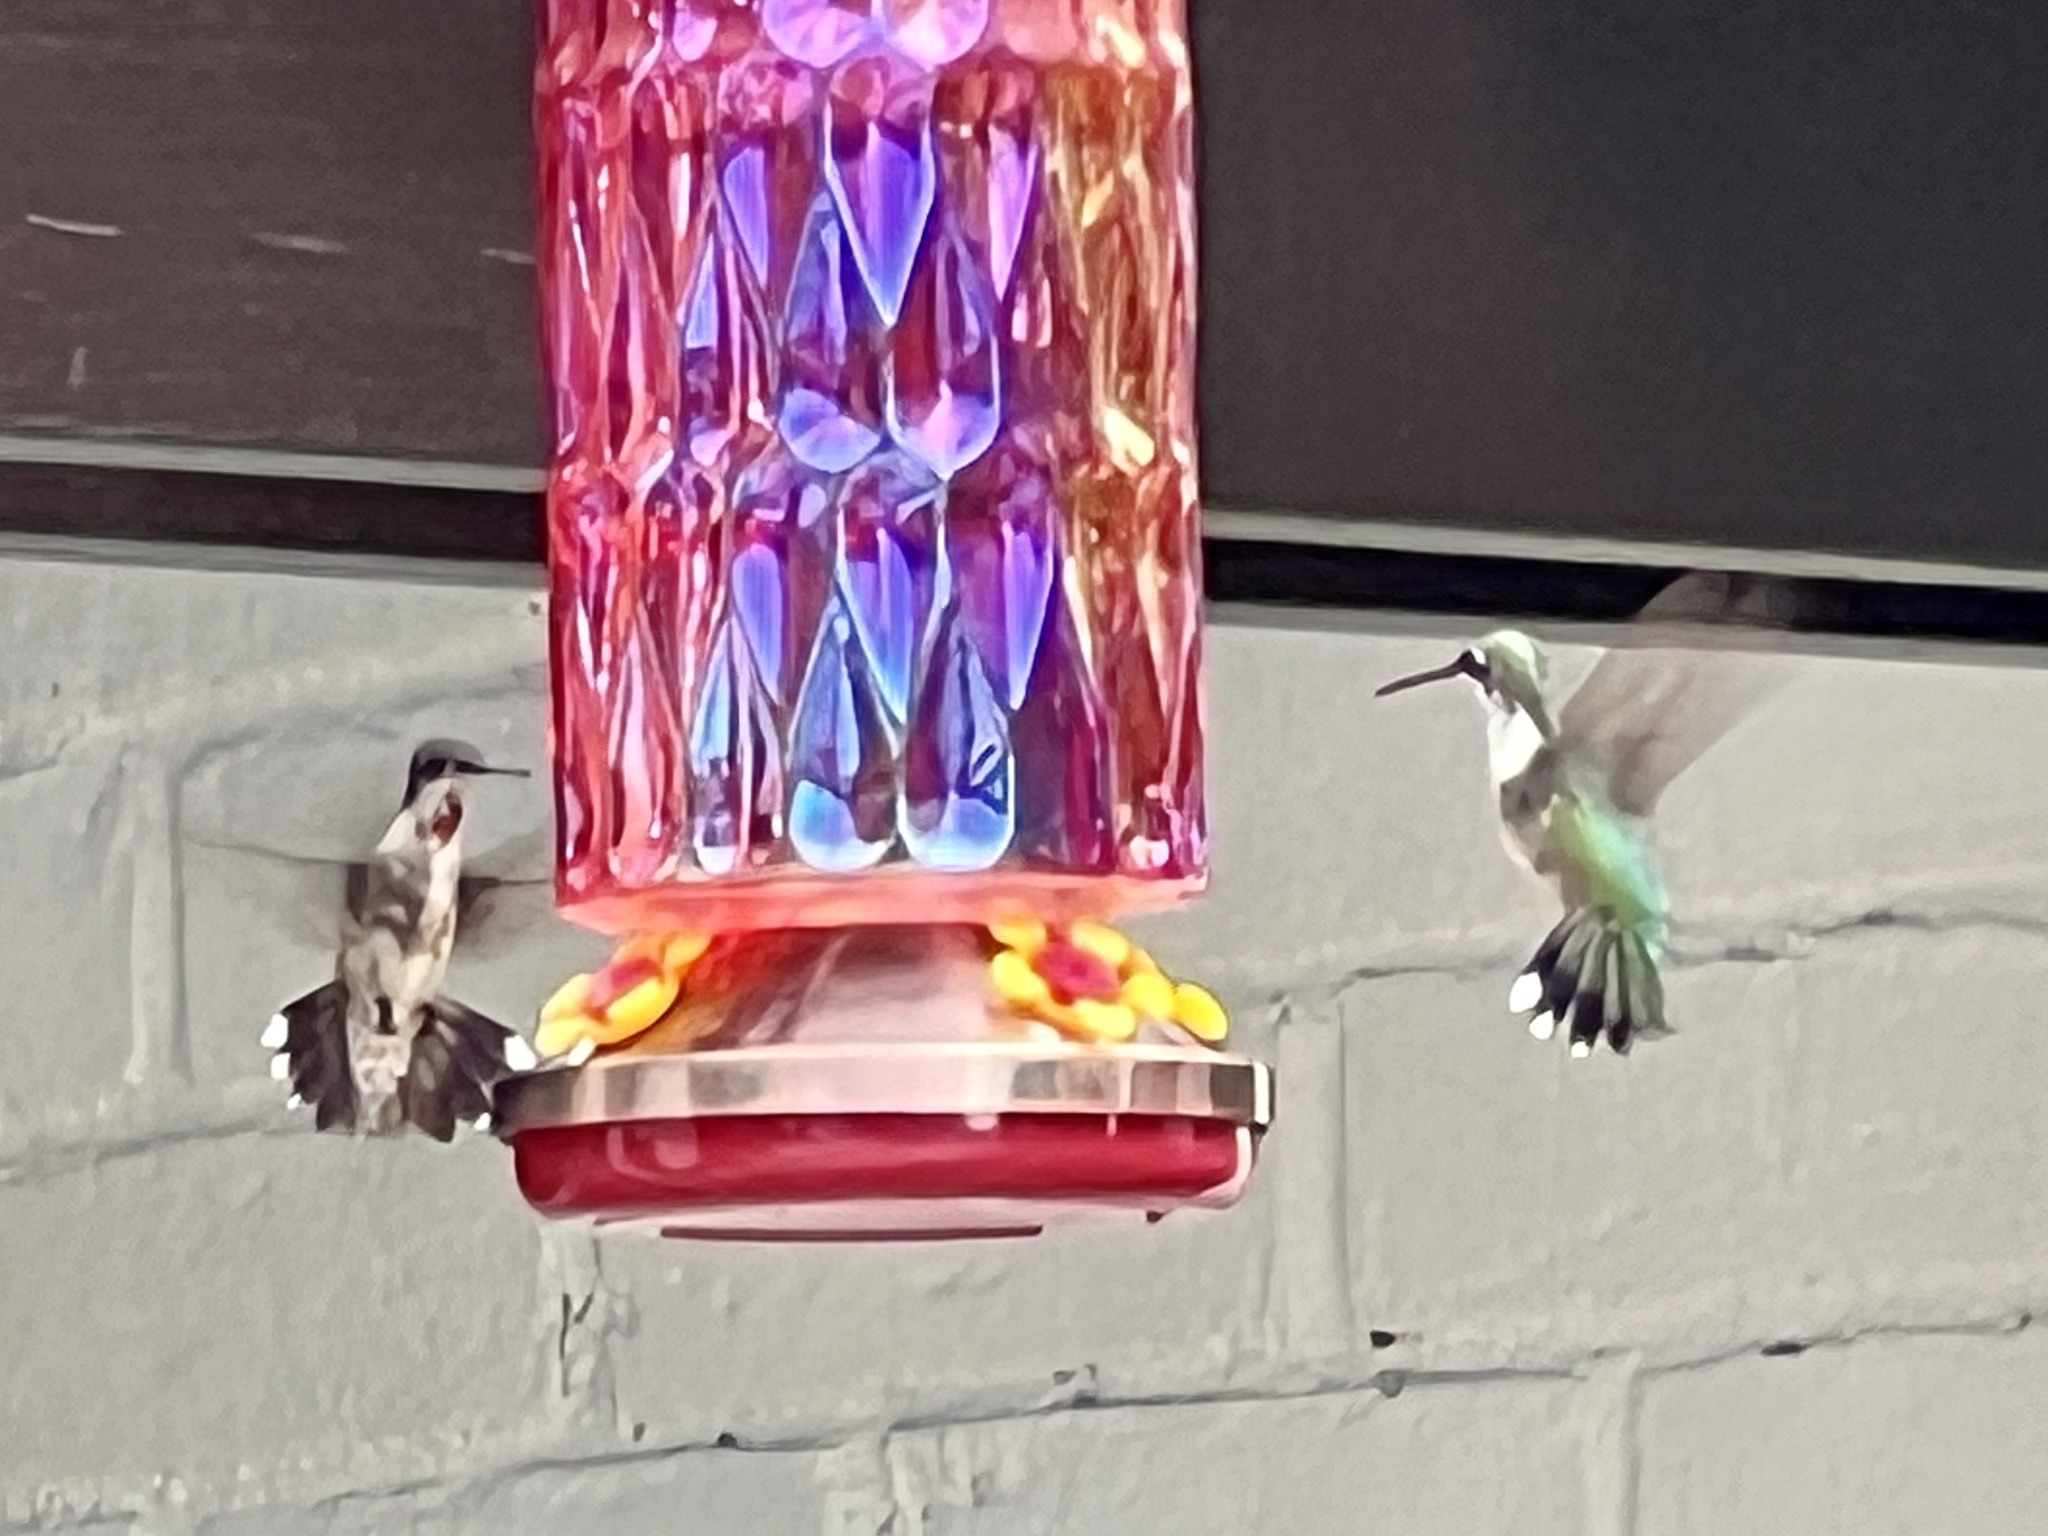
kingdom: Animalia
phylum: Chordata
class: Aves
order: Apodiformes
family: Trochilidae
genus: Archilochus
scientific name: Archilochus colubris
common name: Ruby-throated hummingbird
